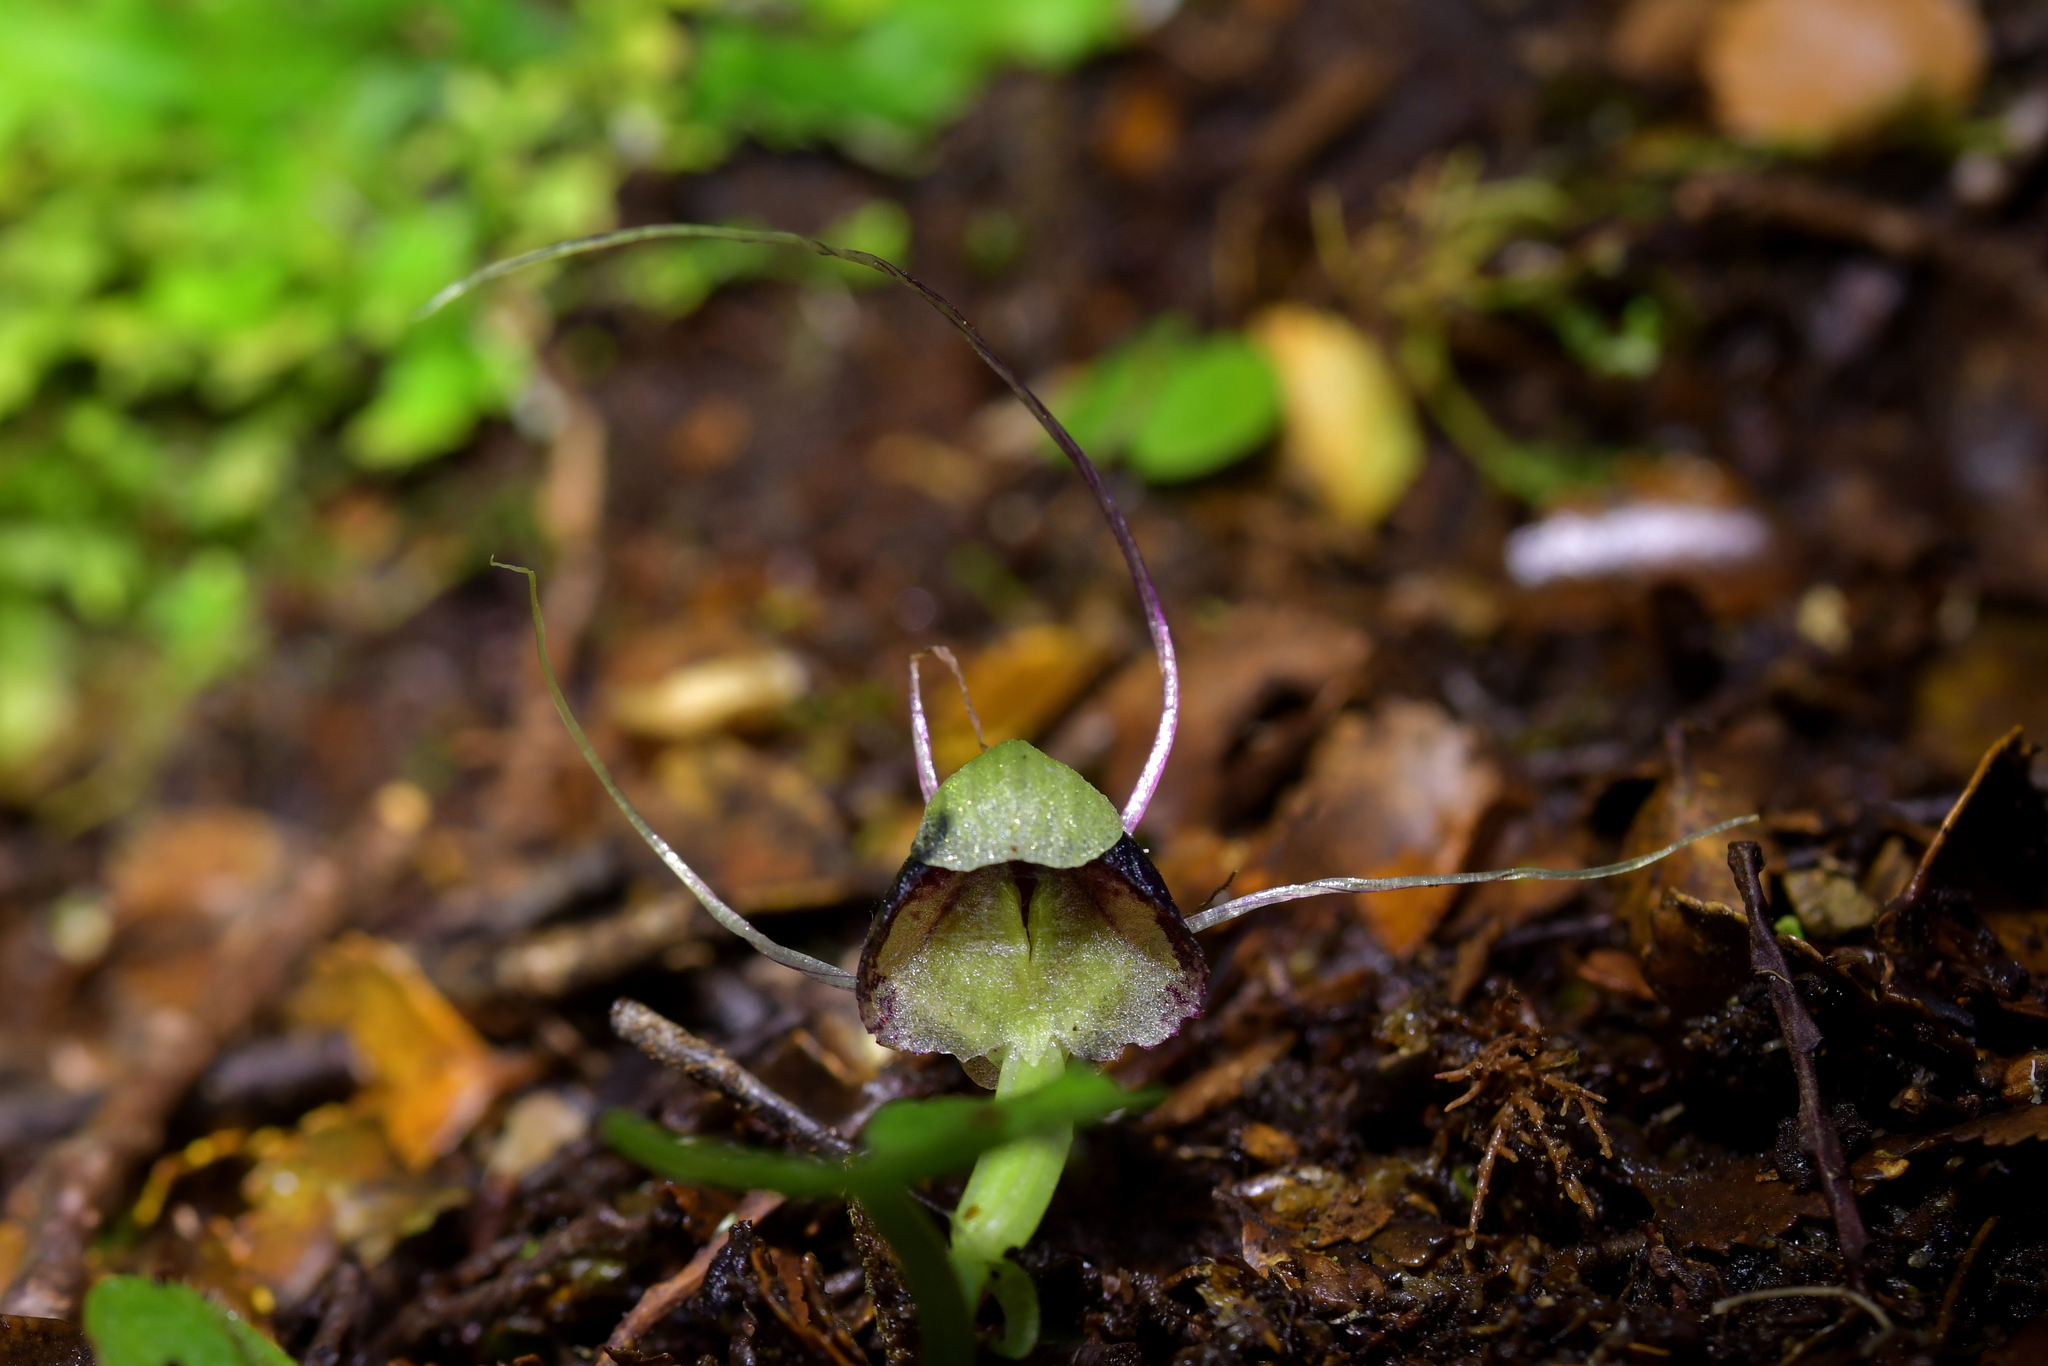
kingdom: Plantae
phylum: Tracheophyta
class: Liliopsida
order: Asparagales
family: Orchidaceae
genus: Corybas
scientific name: Corybas vitreus
